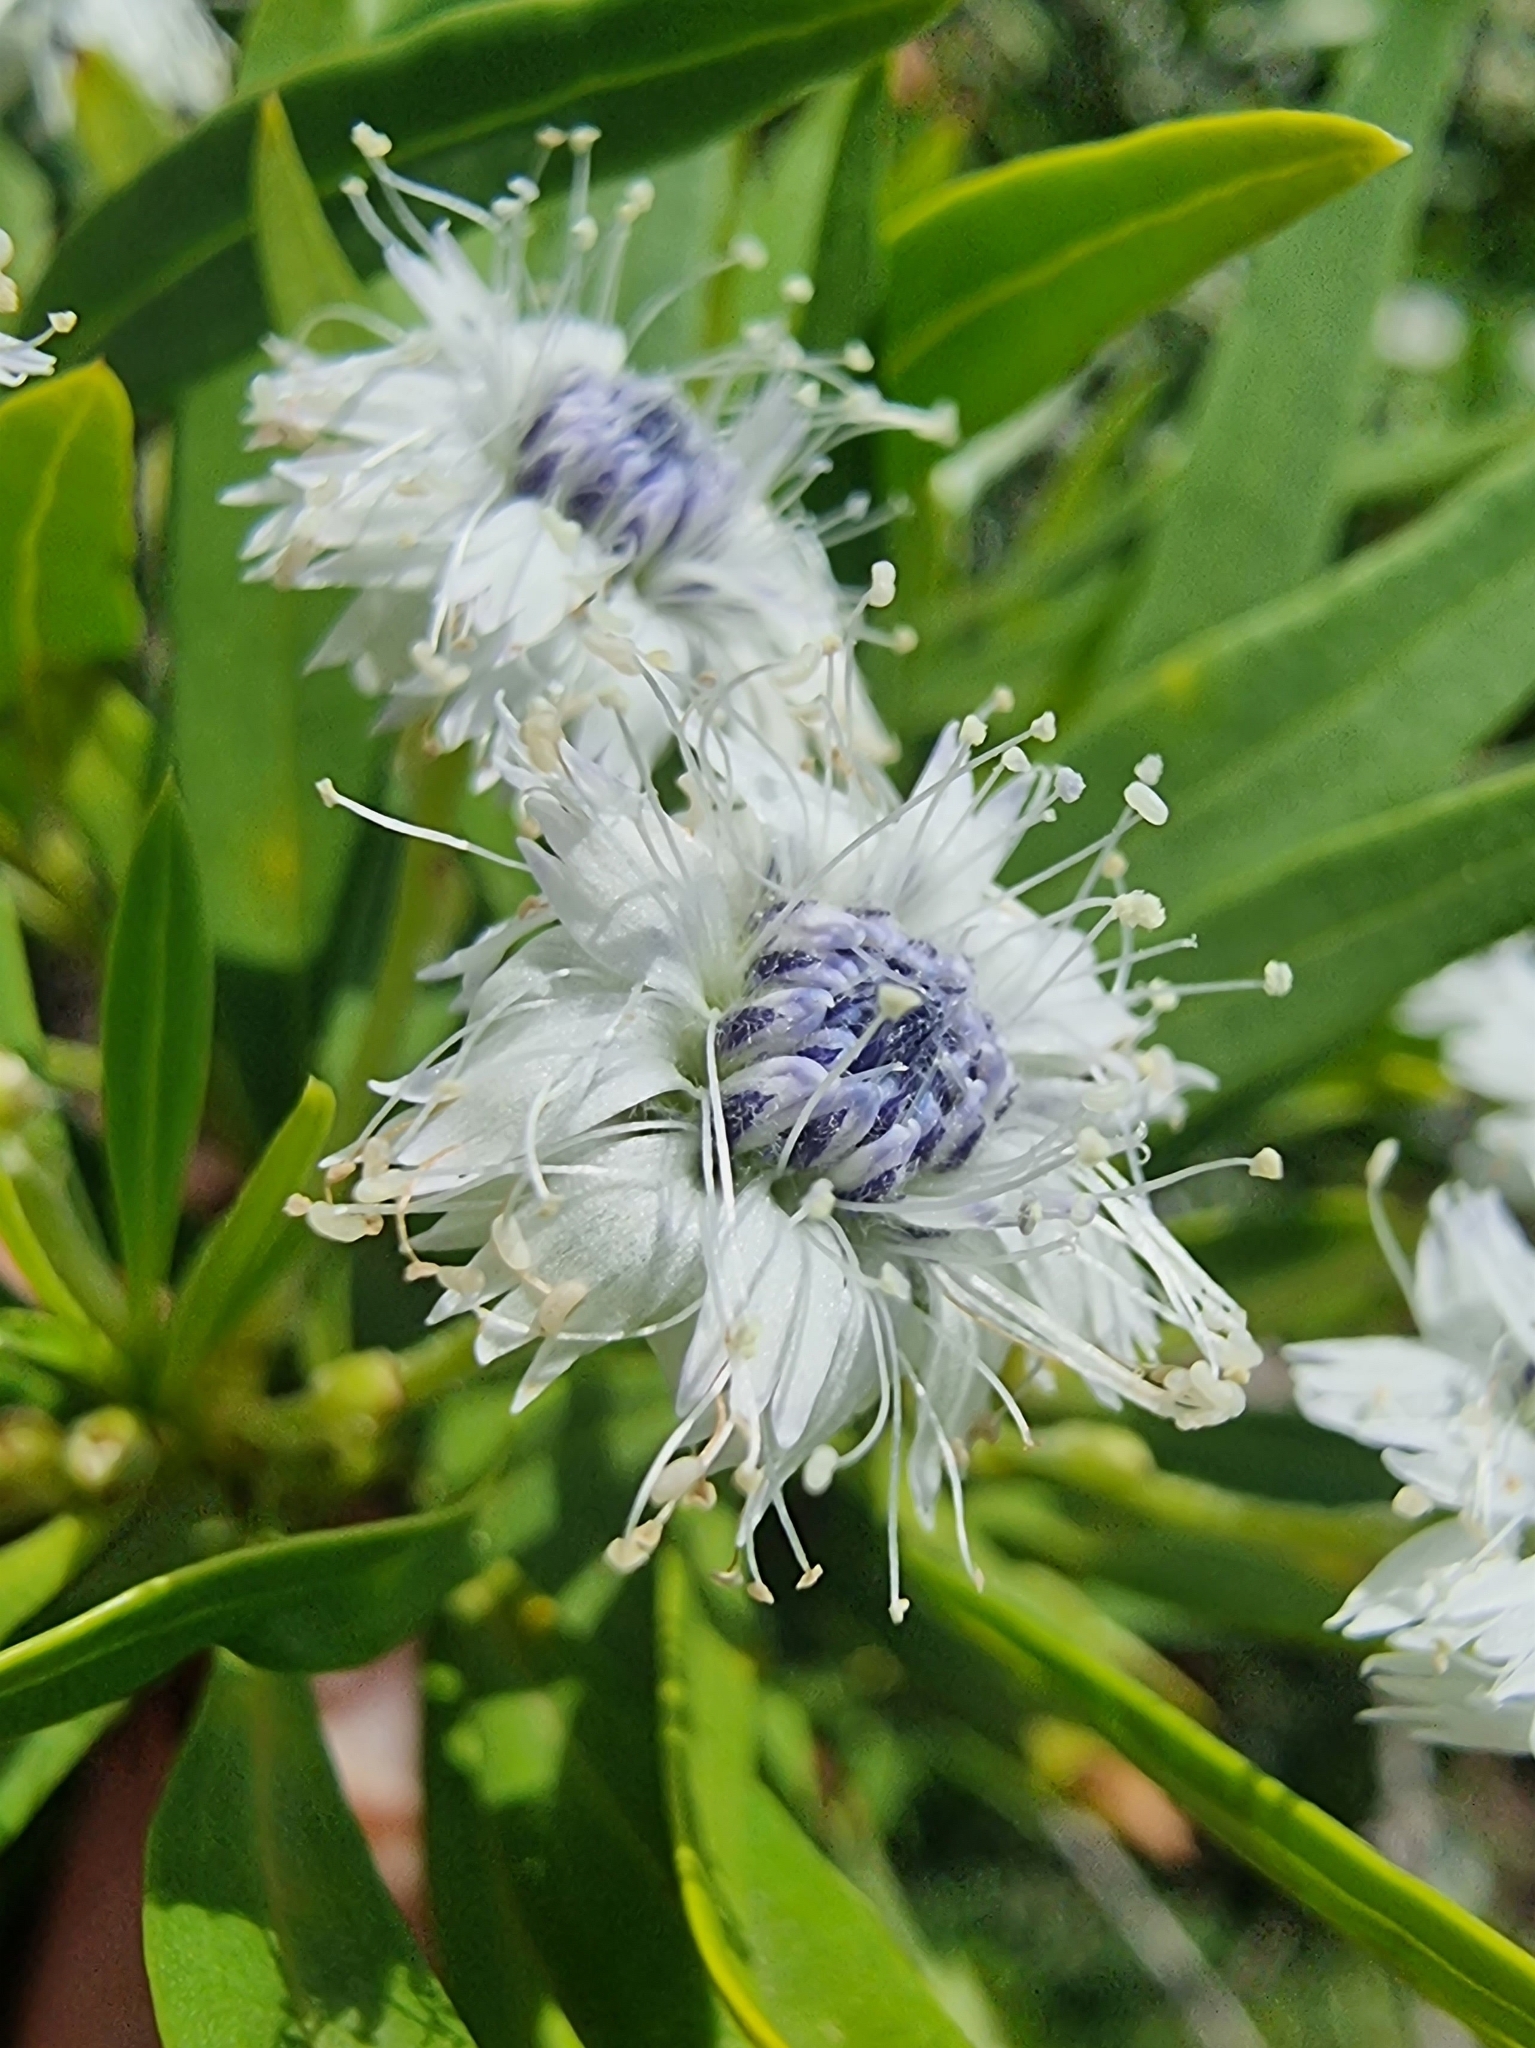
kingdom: Plantae
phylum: Tracheophyta
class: Magnoliopsida
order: Lamiales
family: Plantaginaceae
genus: Globularia
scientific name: Globularia salicina
